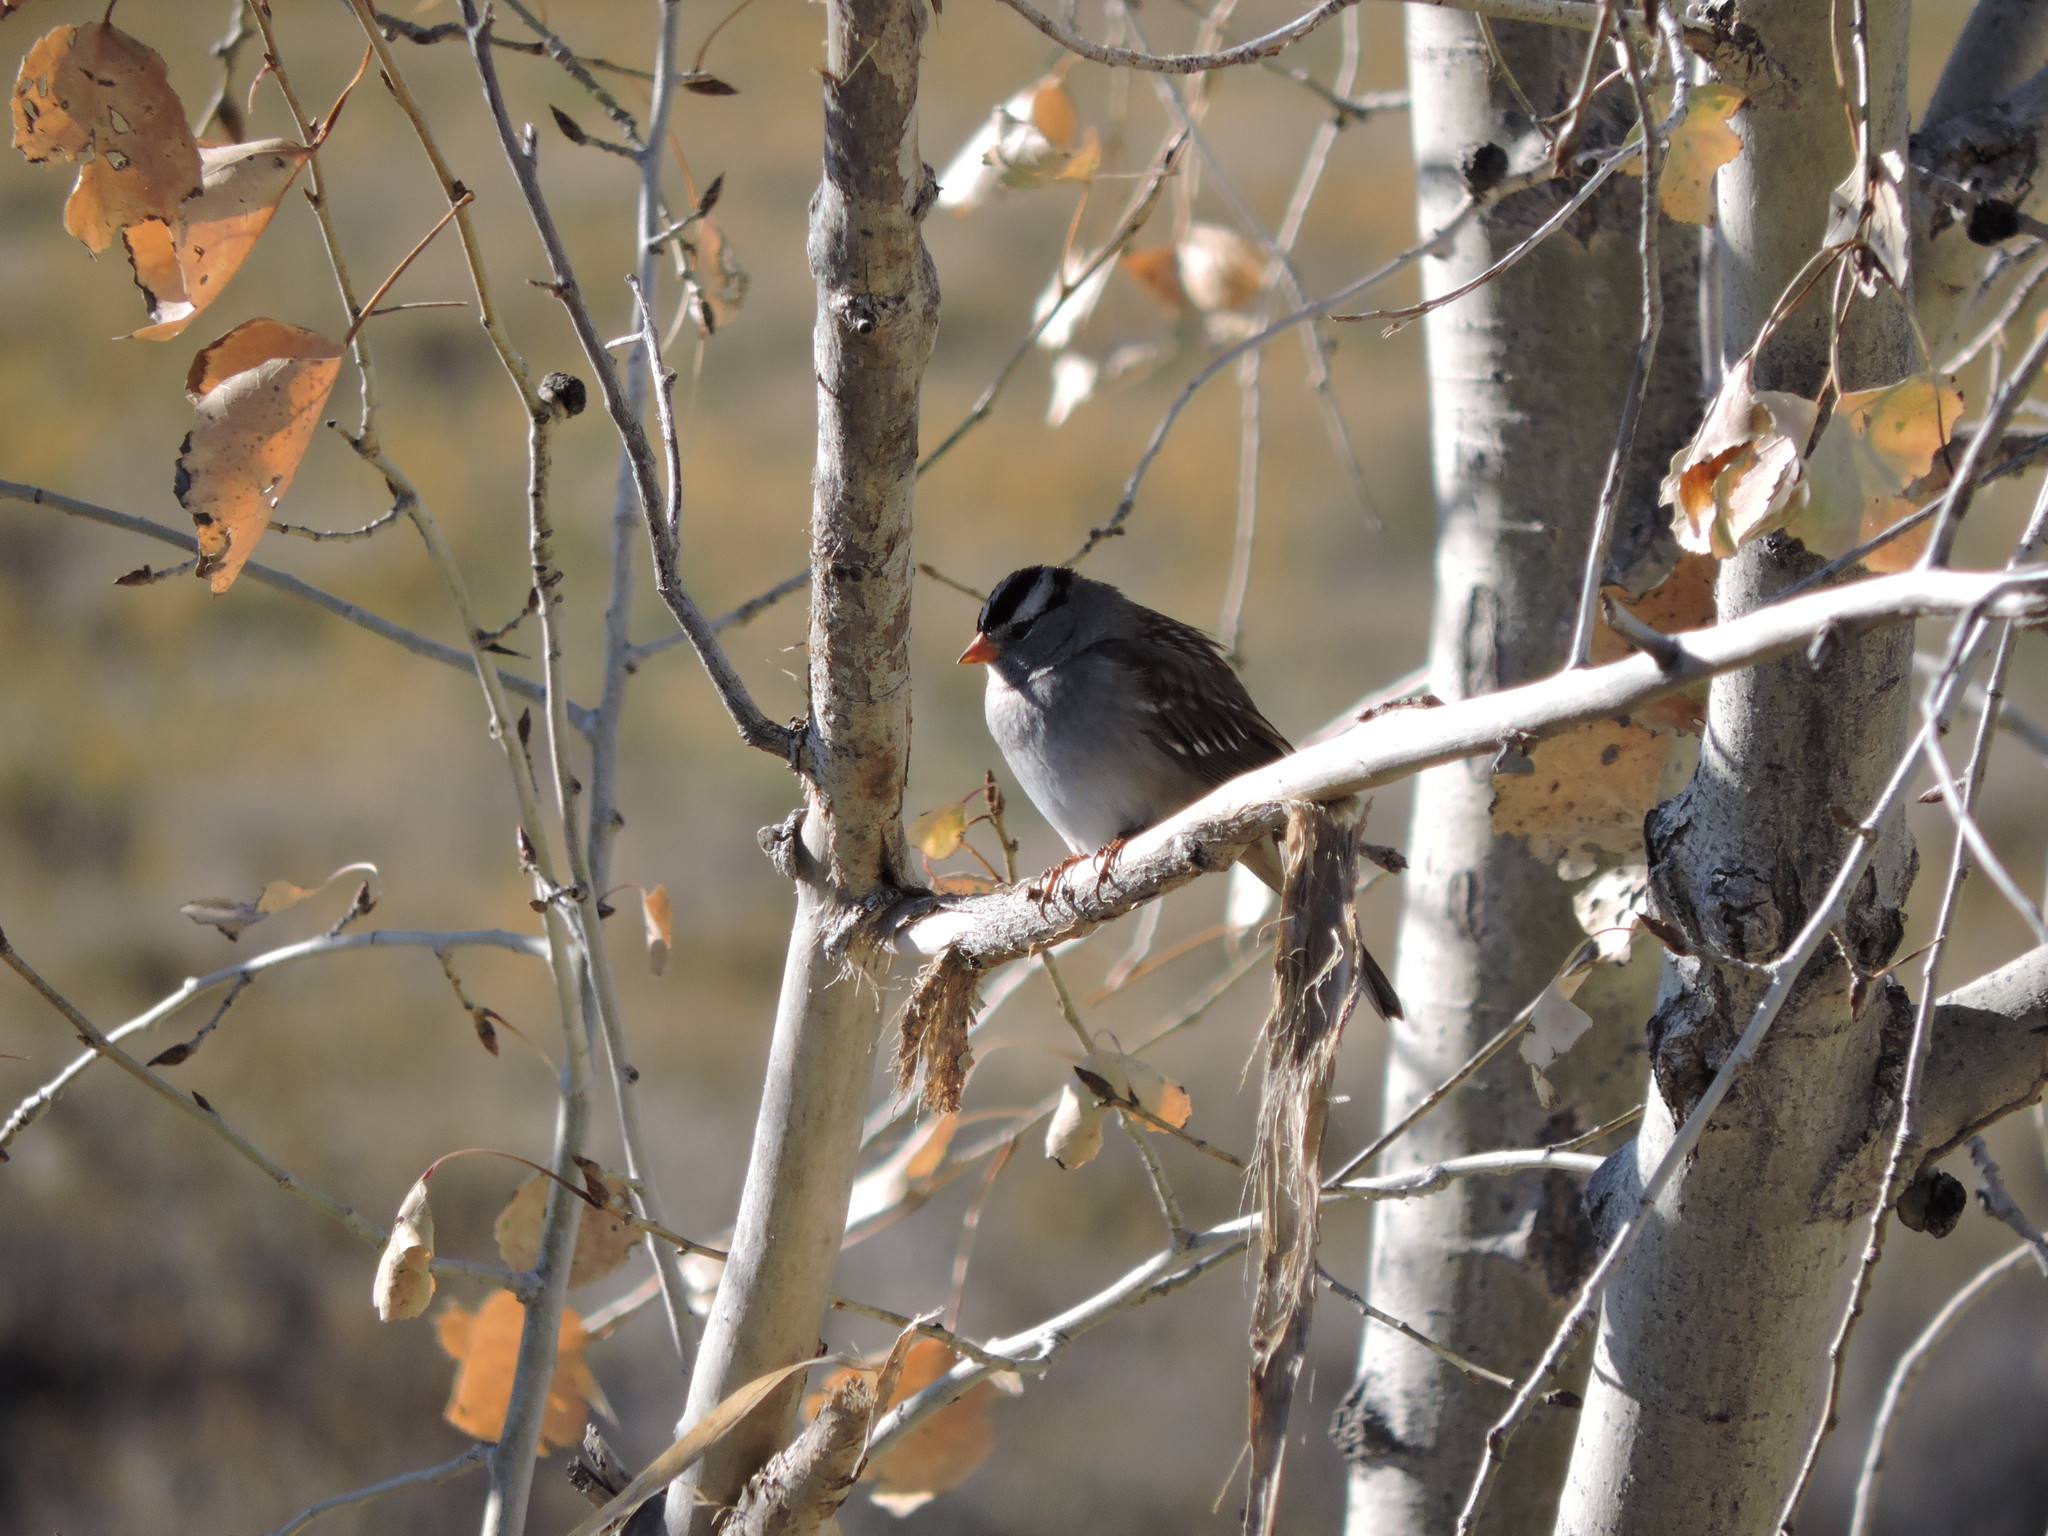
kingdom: Animalia
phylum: Chordata
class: Aves
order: Passeriformes
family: Passerellidae
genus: Zonotrichia
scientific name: Zonotrichia leucophrys
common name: White-crowned sparrow
